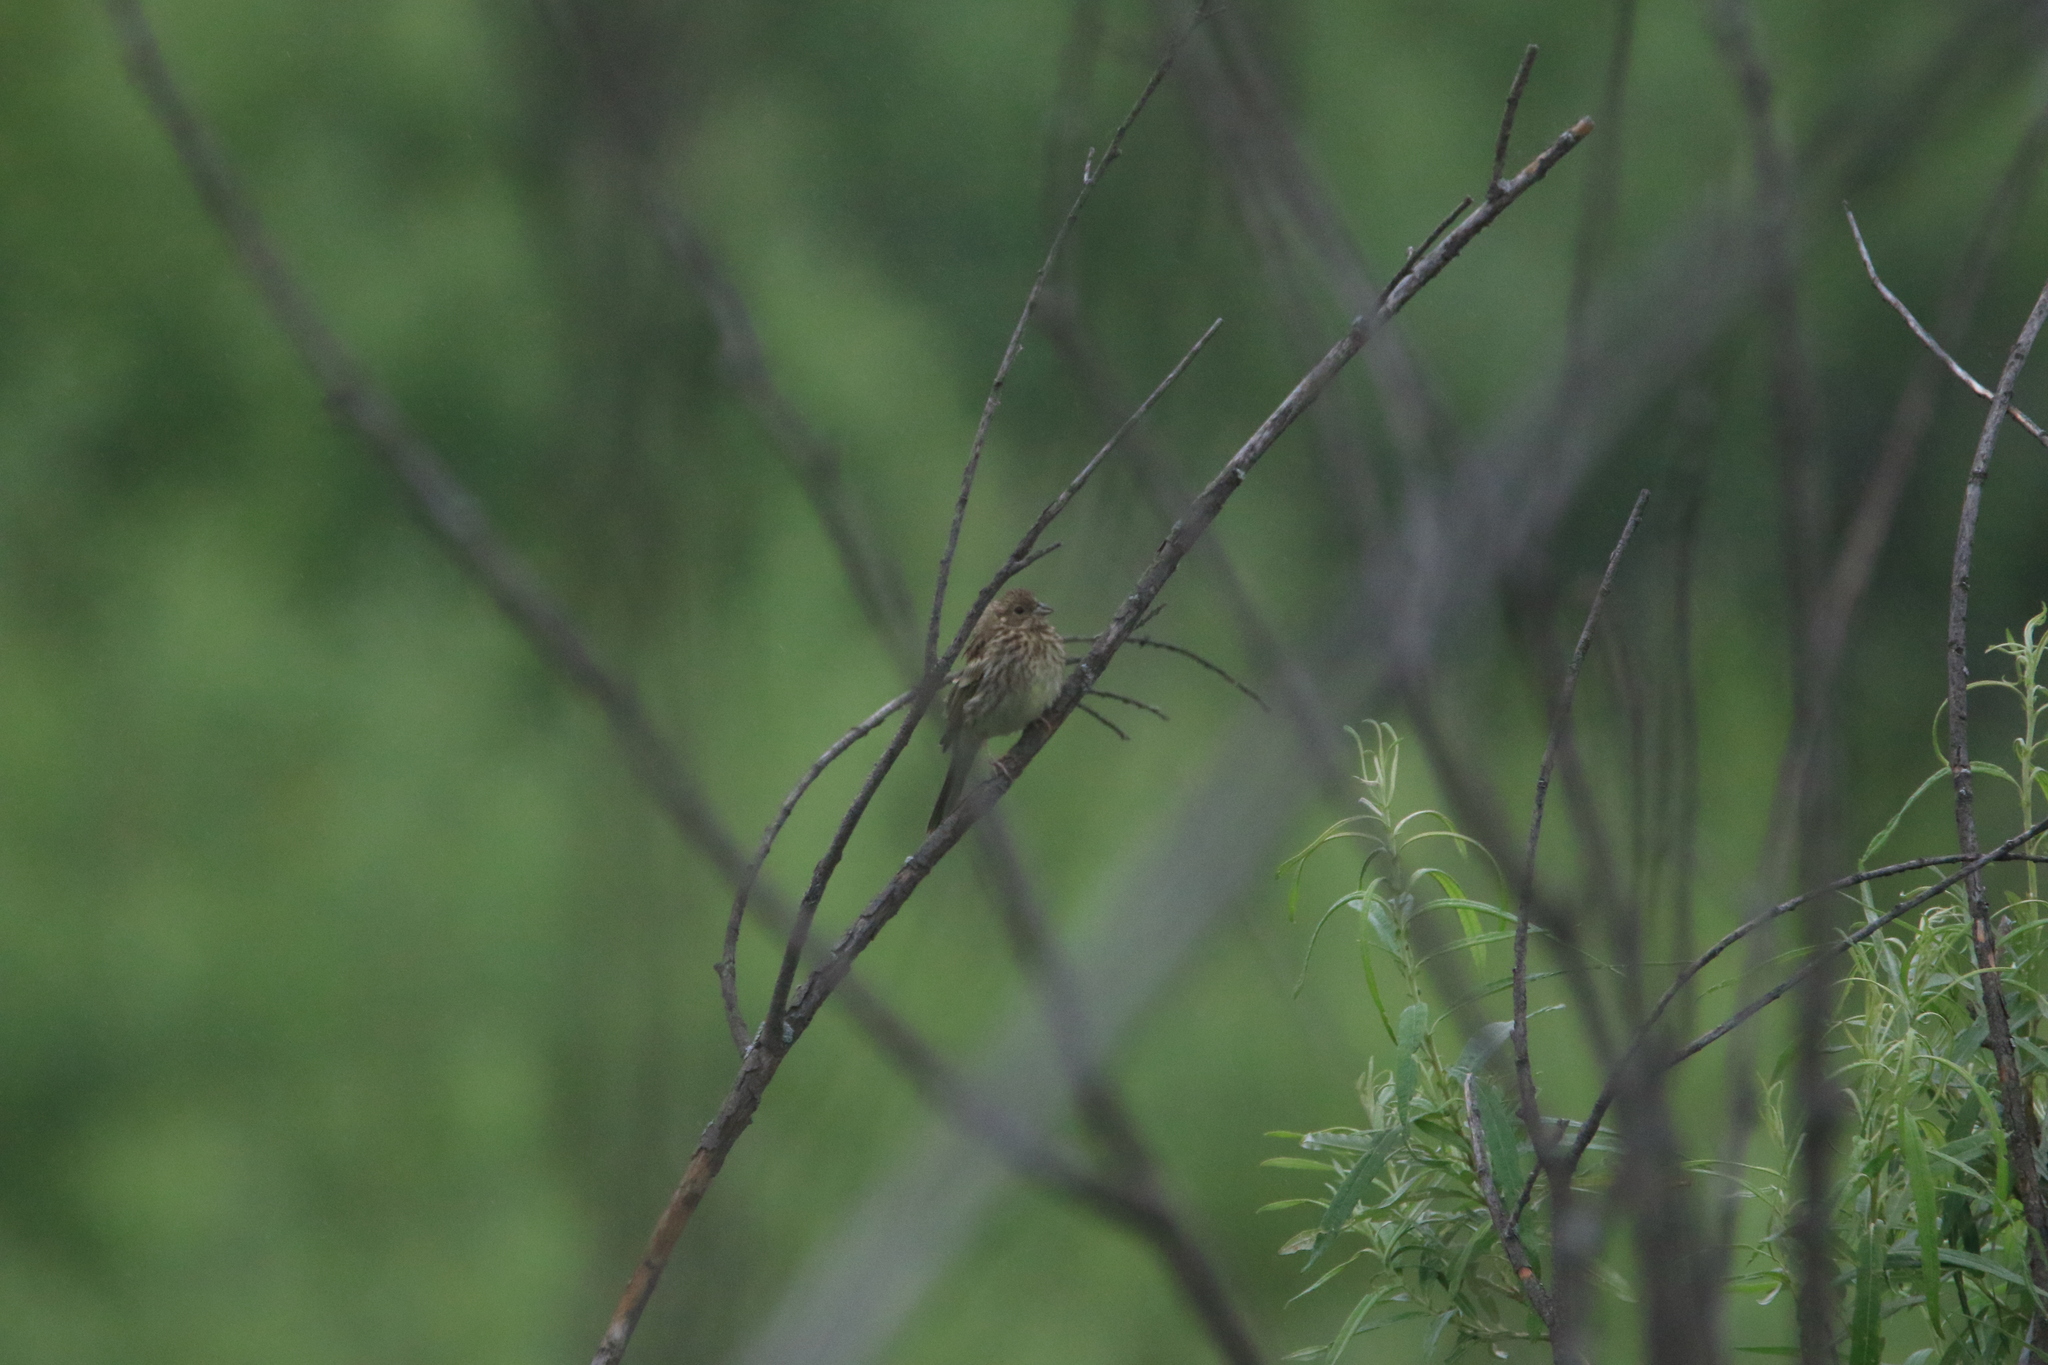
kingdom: Animalia
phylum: Chordata
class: Aves
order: Passeriformes
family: Emberizidae
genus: Emberiza
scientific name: Emberiza citrinella
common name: Yellowhammer
